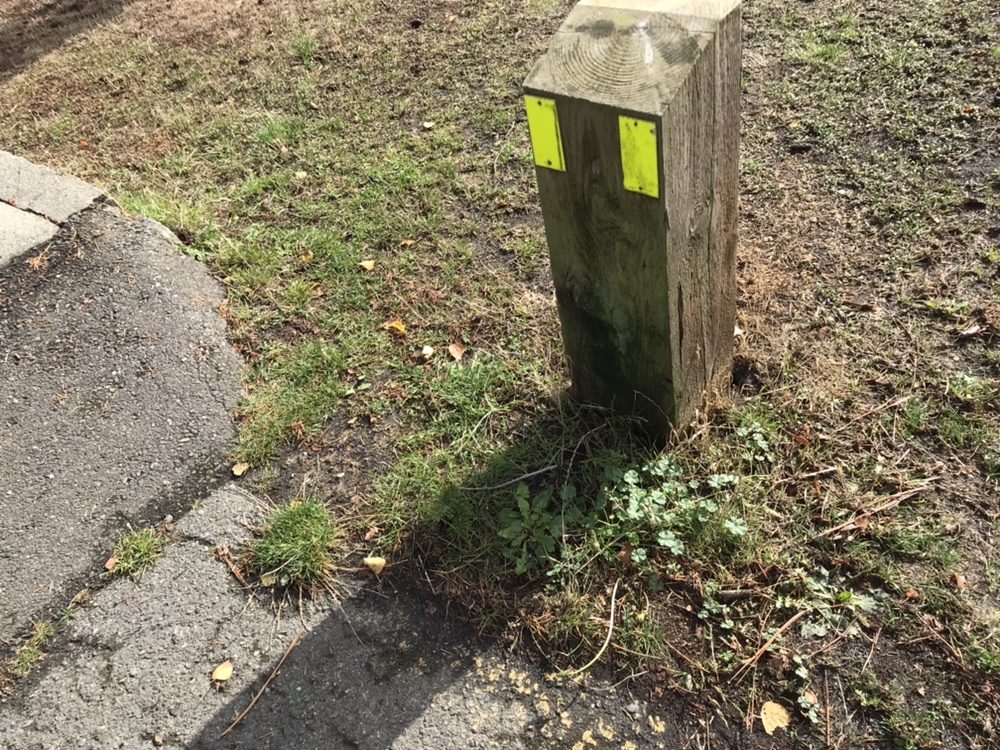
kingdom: Plantae
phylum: Tracheophyta
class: Magnoliopsida
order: Malvales
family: Malvaceae
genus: Malva
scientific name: Malva neglecta
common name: Common mallow
